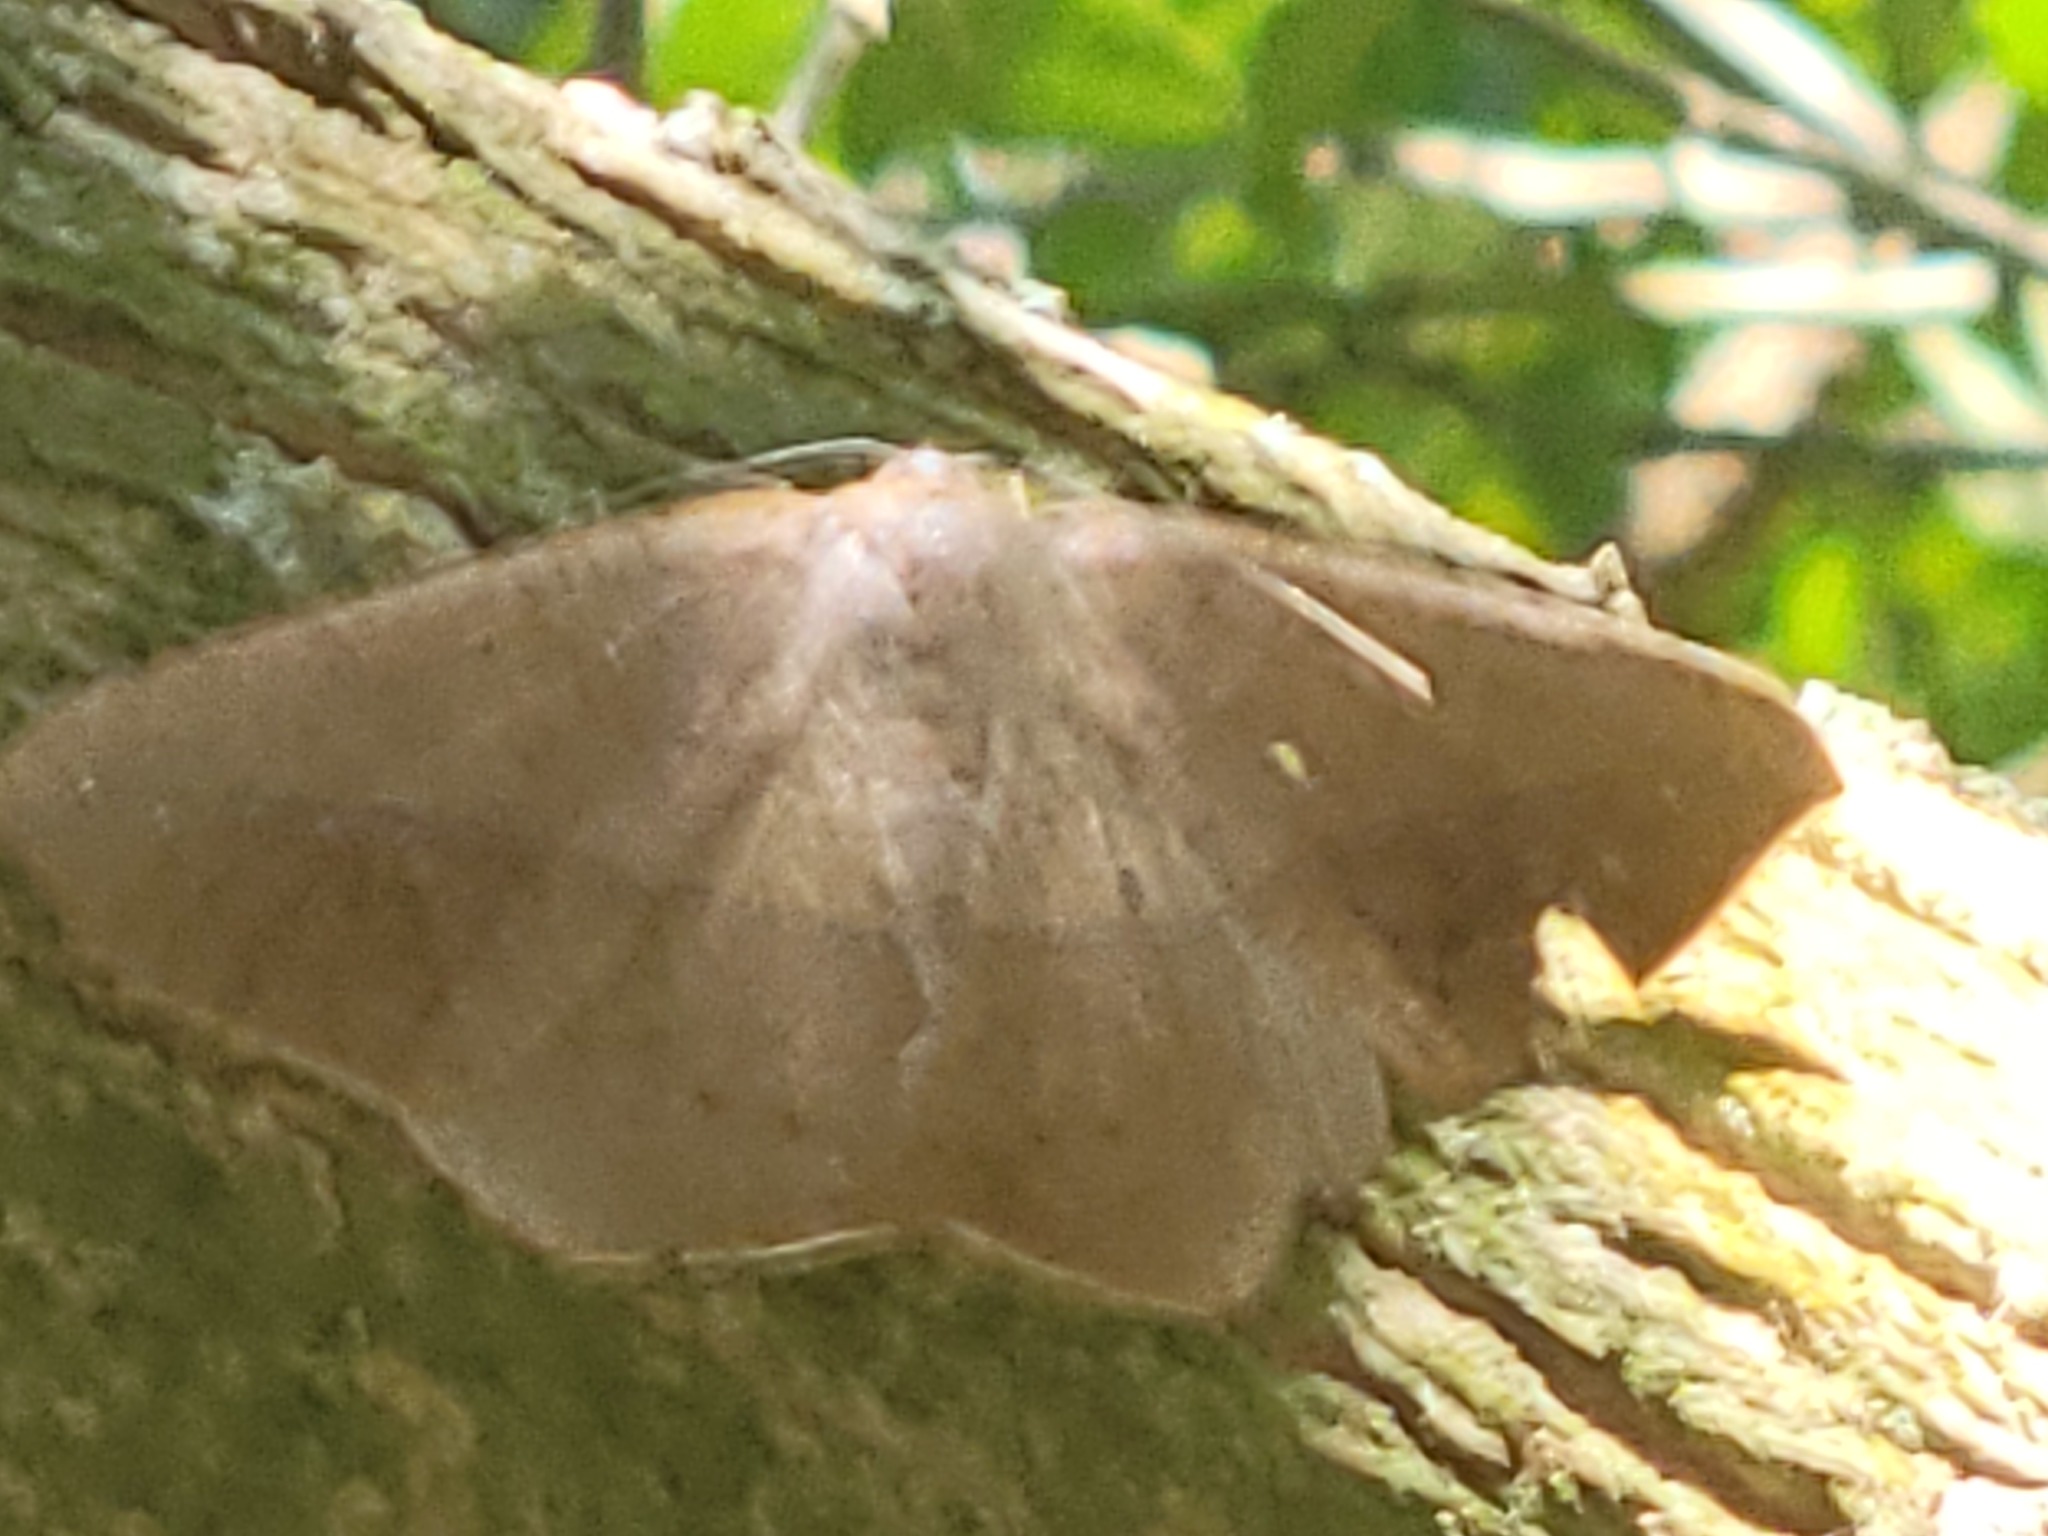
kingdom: Animalia
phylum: Arthropoda
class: Insecta
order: Lepidoptera
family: Geometridae
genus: Prochoerodes
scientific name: Prochoerodes olivata
